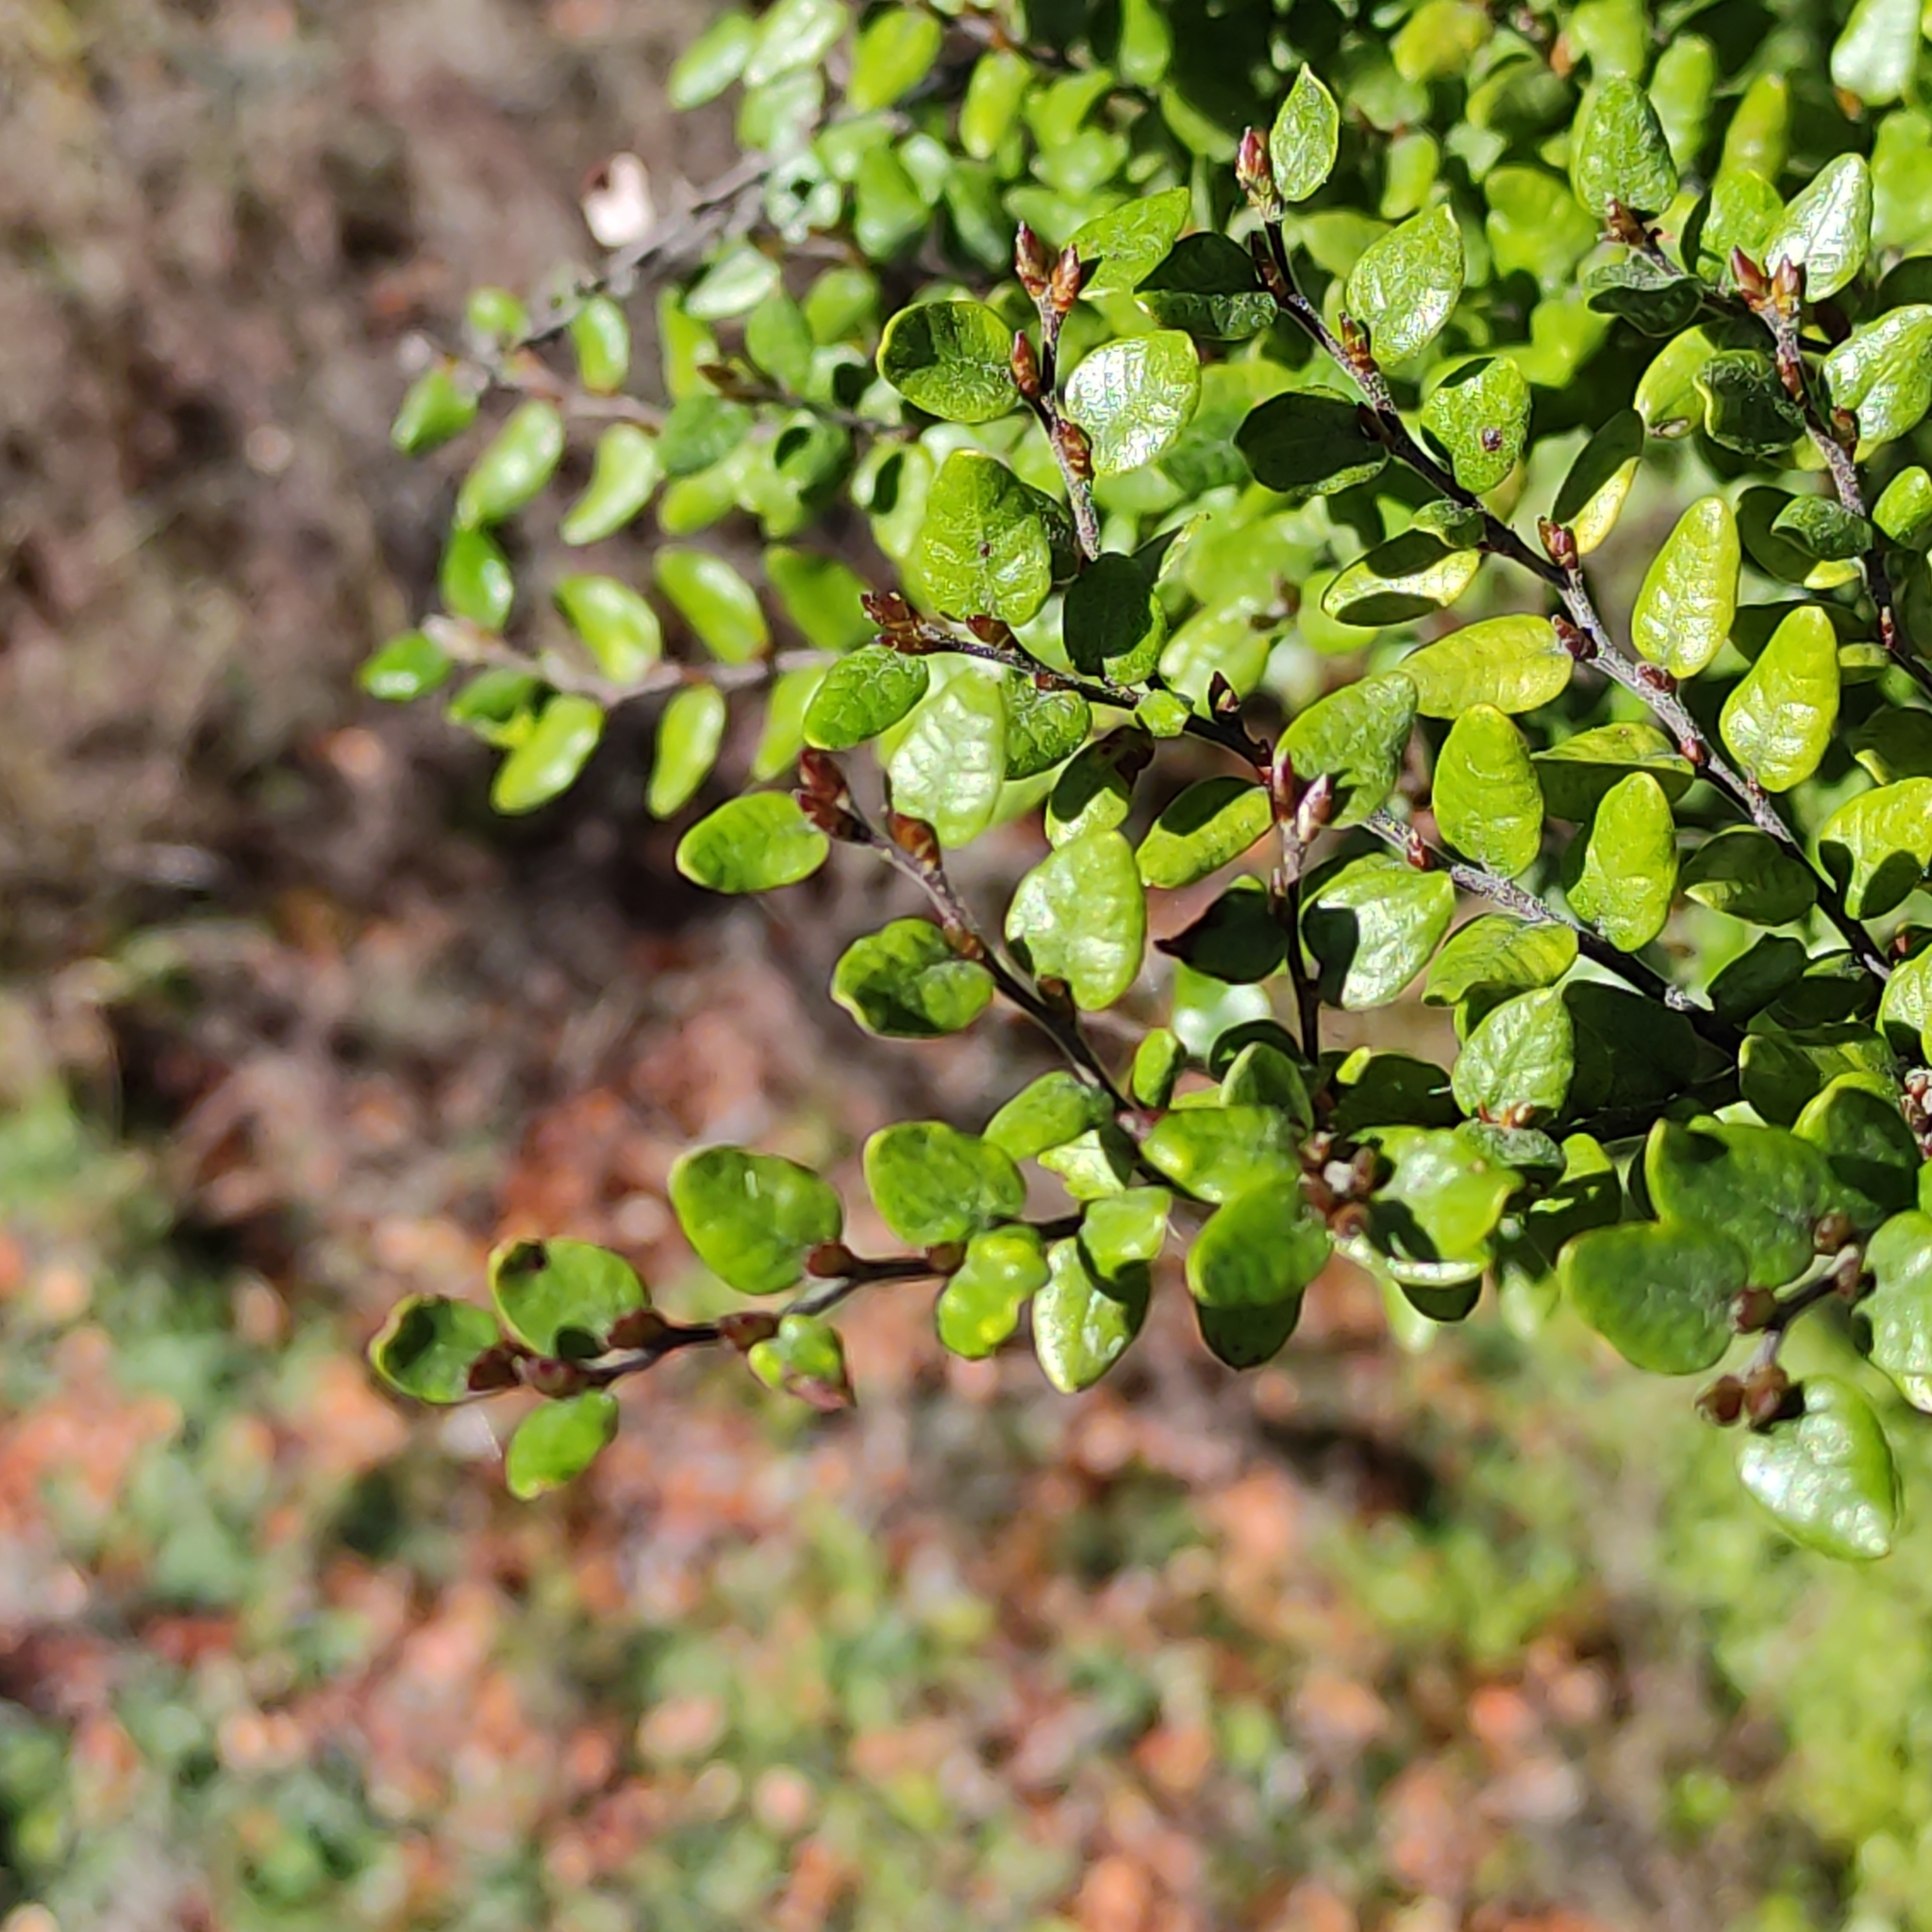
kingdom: Plantae
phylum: Tracheophyta
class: Magnoliopsida
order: Fagales
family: Nothofagaceae
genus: Nothofagus
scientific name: Nothofagus cliffortioides
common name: Mountain beech
